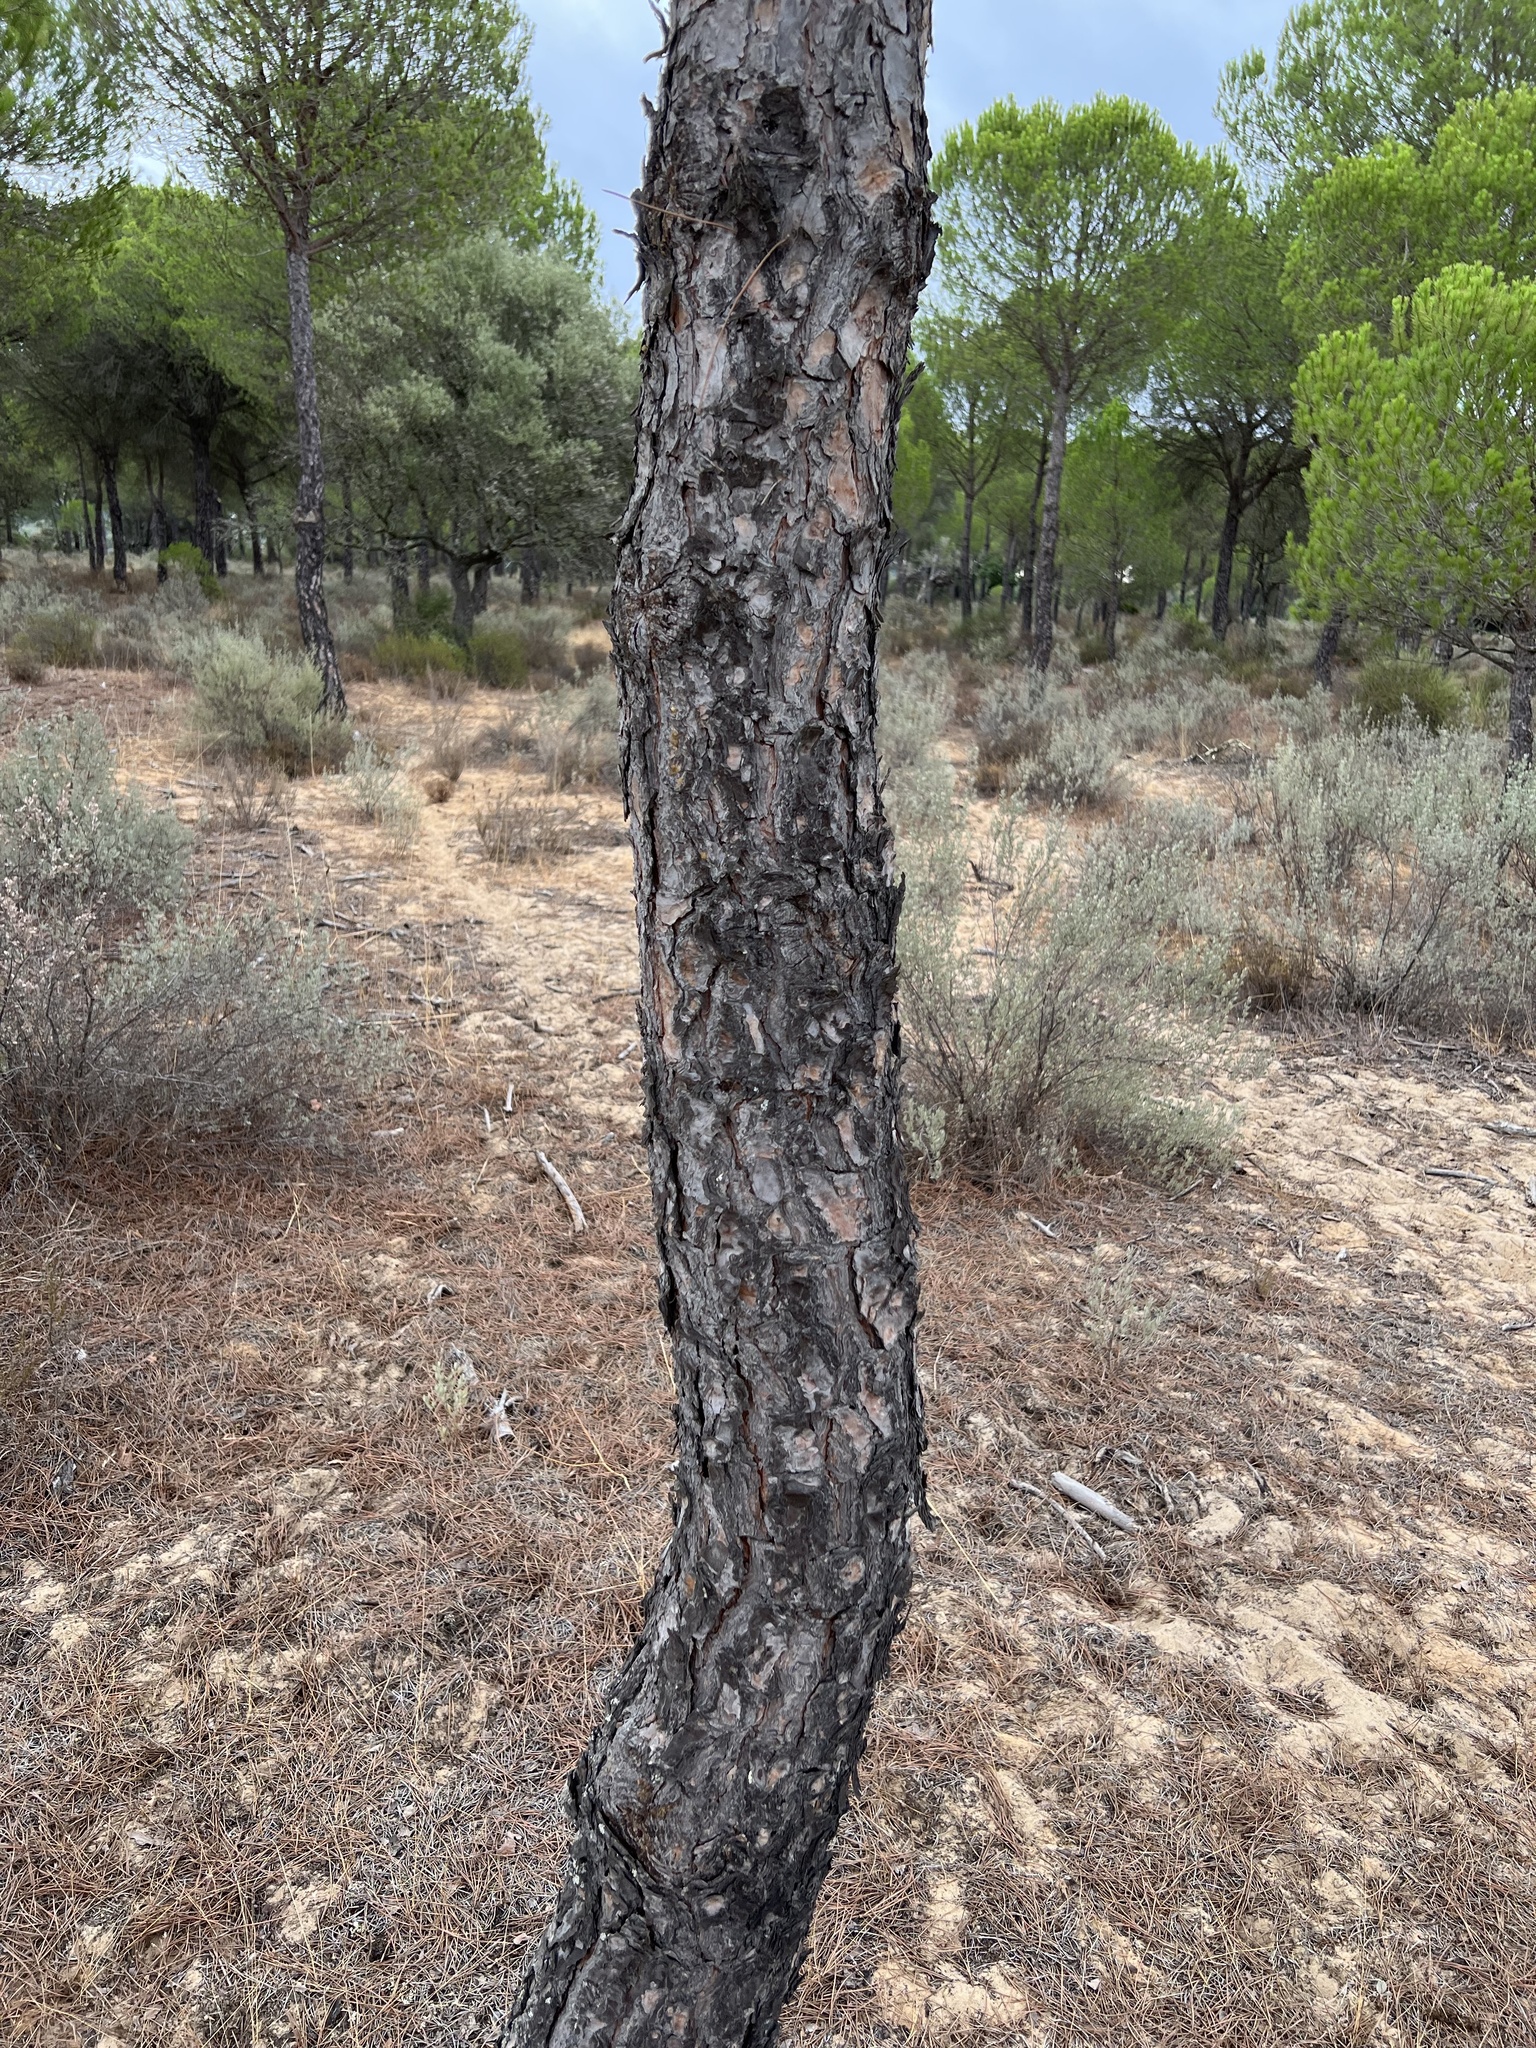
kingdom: Plantae
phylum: Tracheophyta
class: Pinopsida
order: Pinales
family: Pinaceae
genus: Pinus
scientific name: Pinus pinea
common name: Italian stone pine
